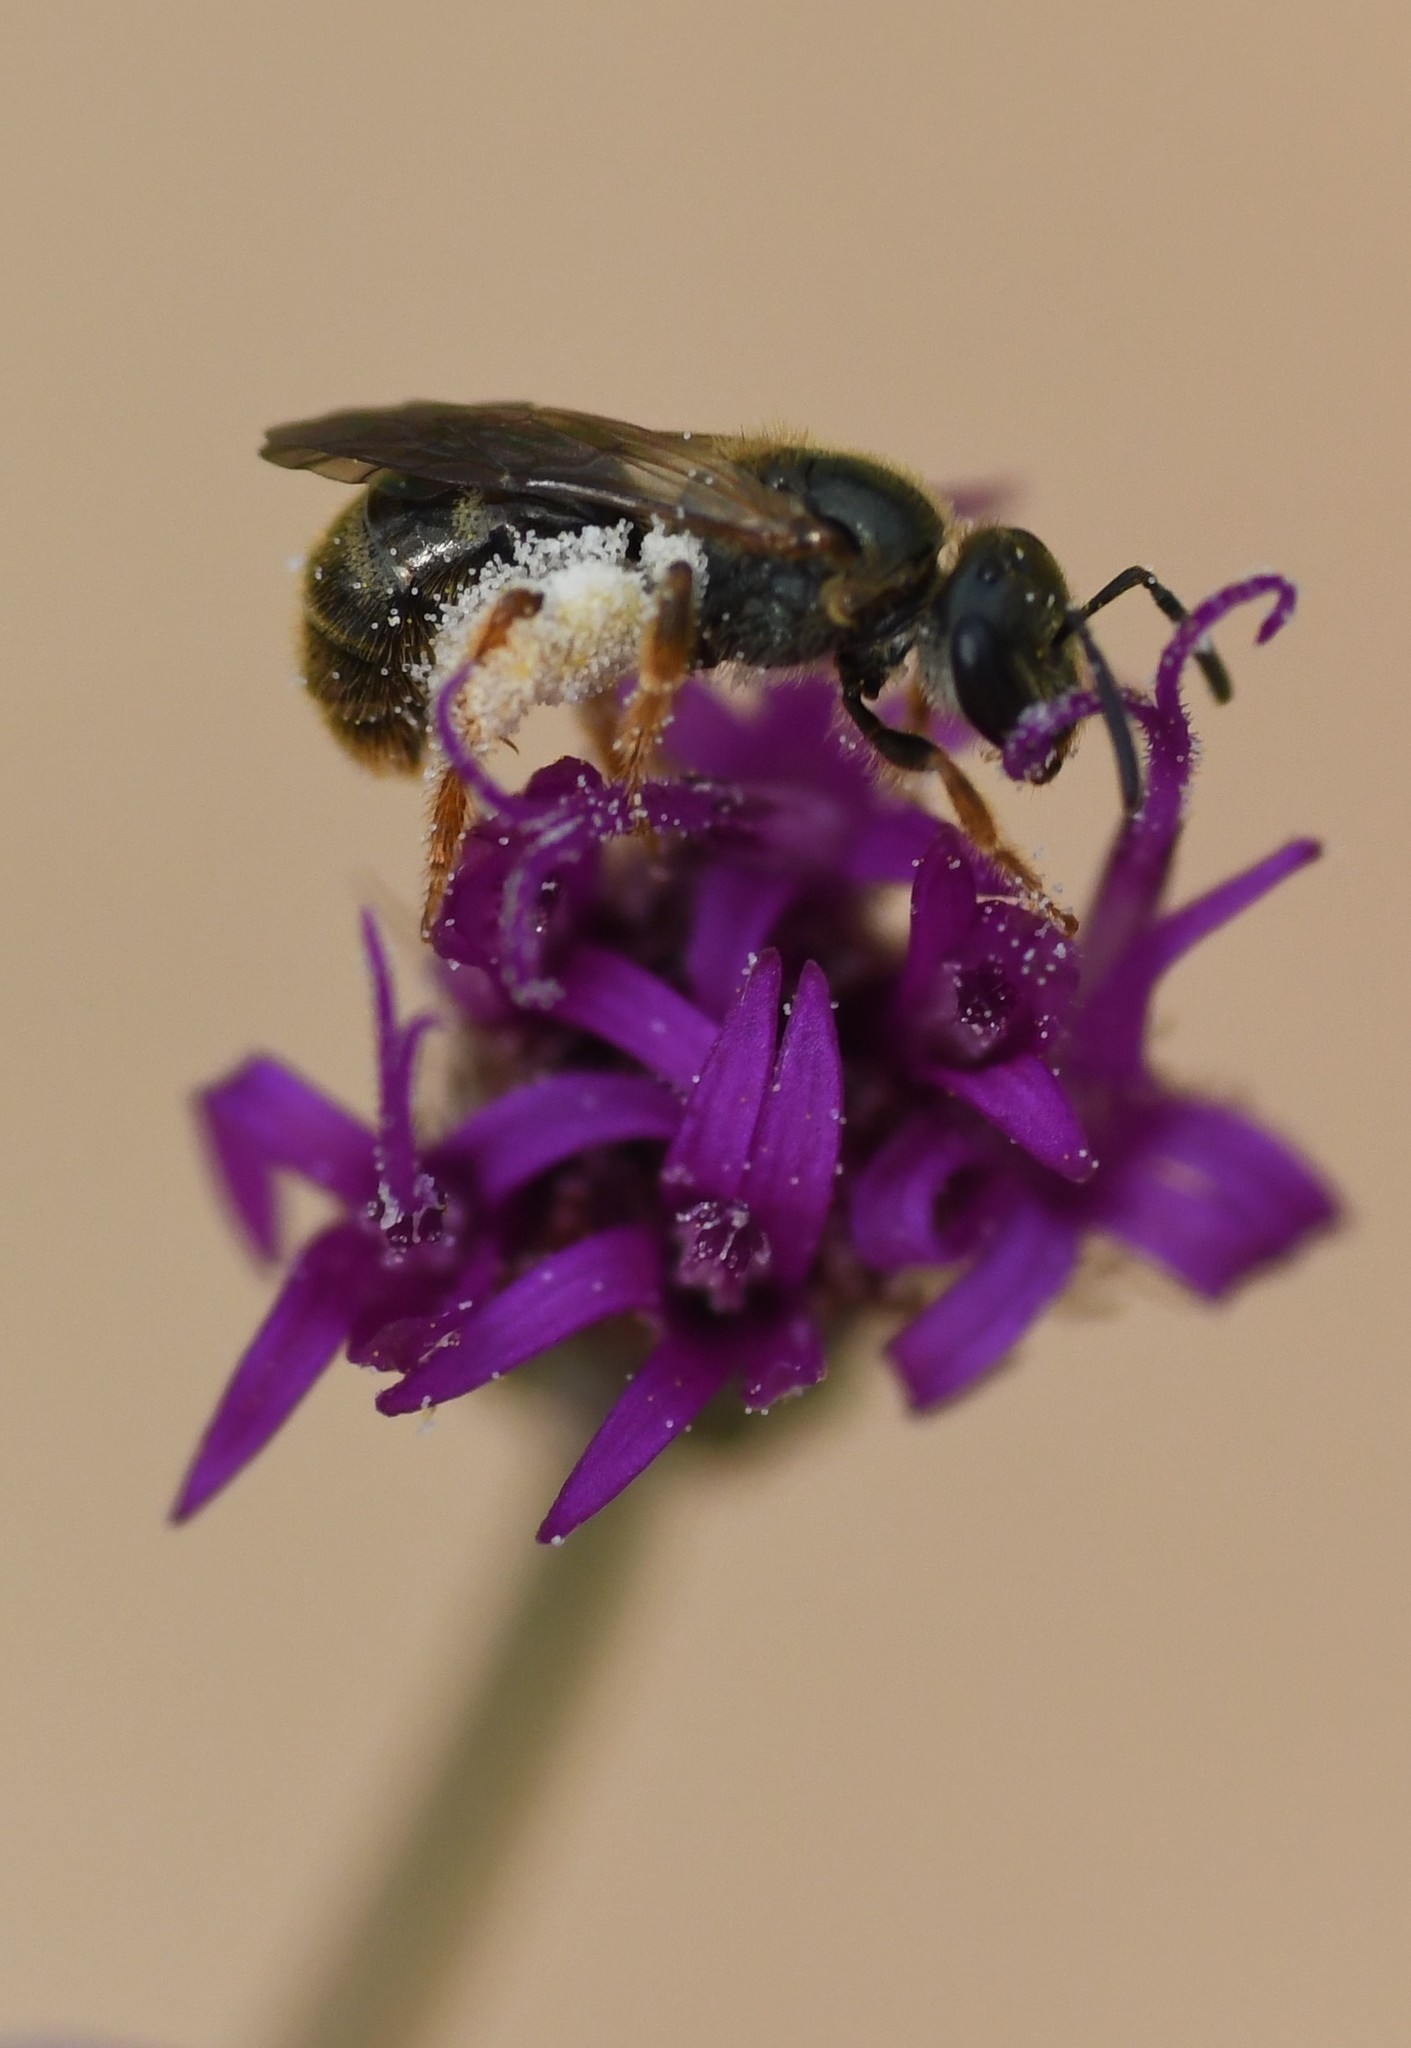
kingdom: Animalia
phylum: Arthropoda
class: Insecta
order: Hymenoptera
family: Halictidae
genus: Lasioglossum
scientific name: Lasioglossum reticulatum
